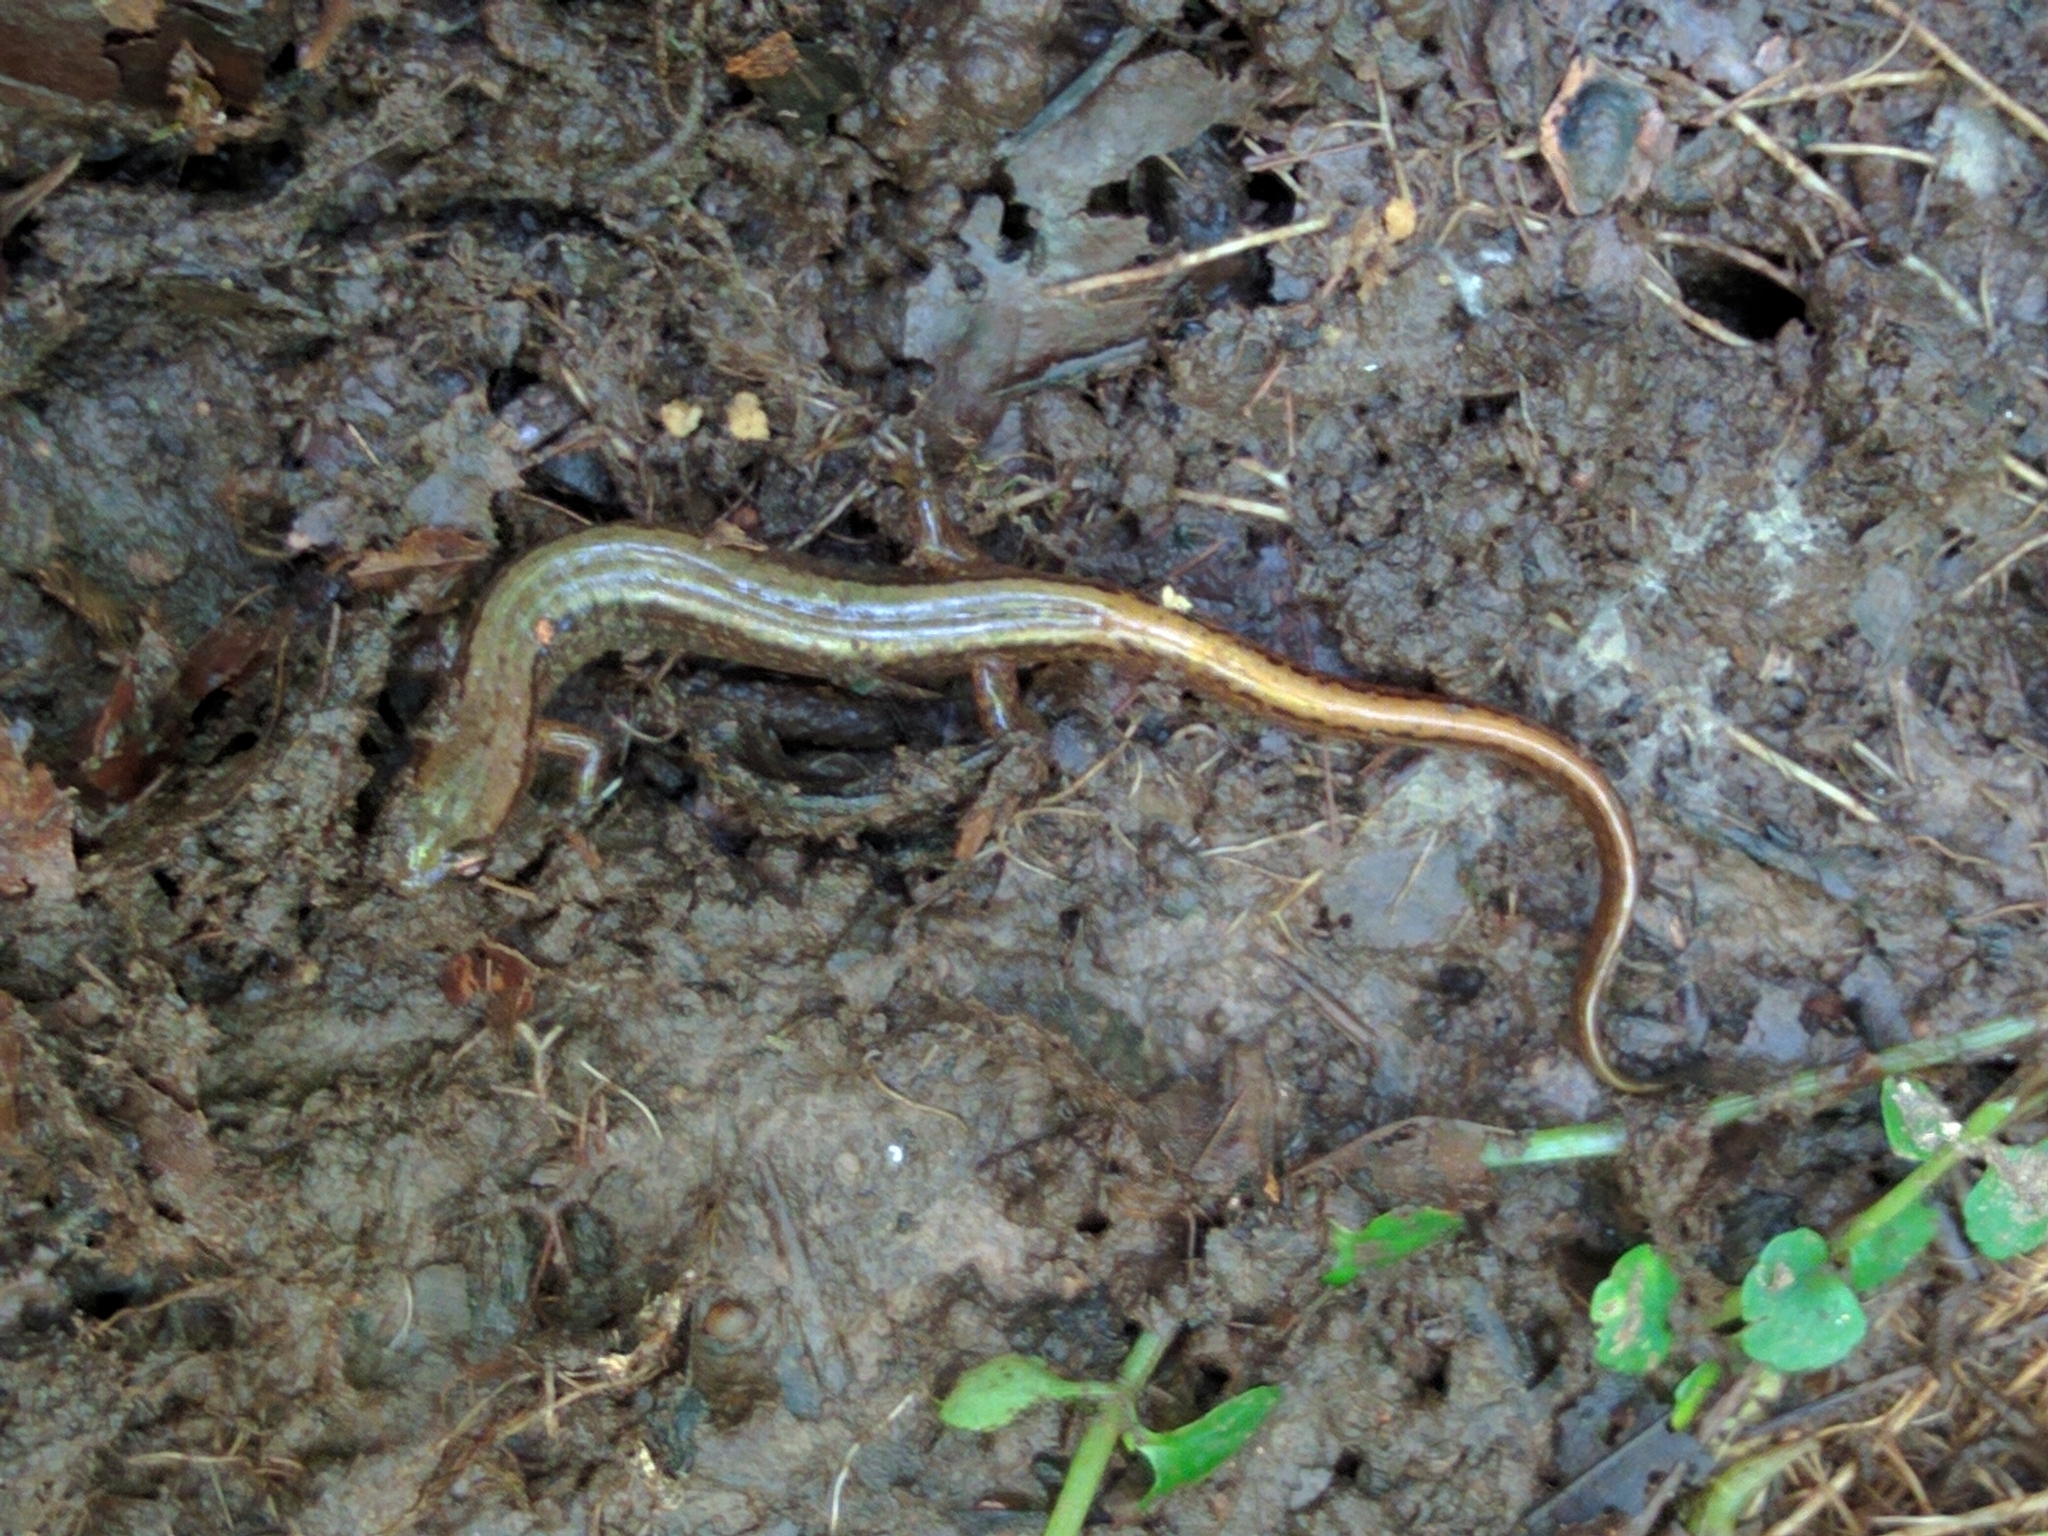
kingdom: Animalia
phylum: Chordata
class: Amphibia
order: Caudata
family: Plethodontidae
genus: Eurycea
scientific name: Eurycea bislineata
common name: Northern two-lined salamander
